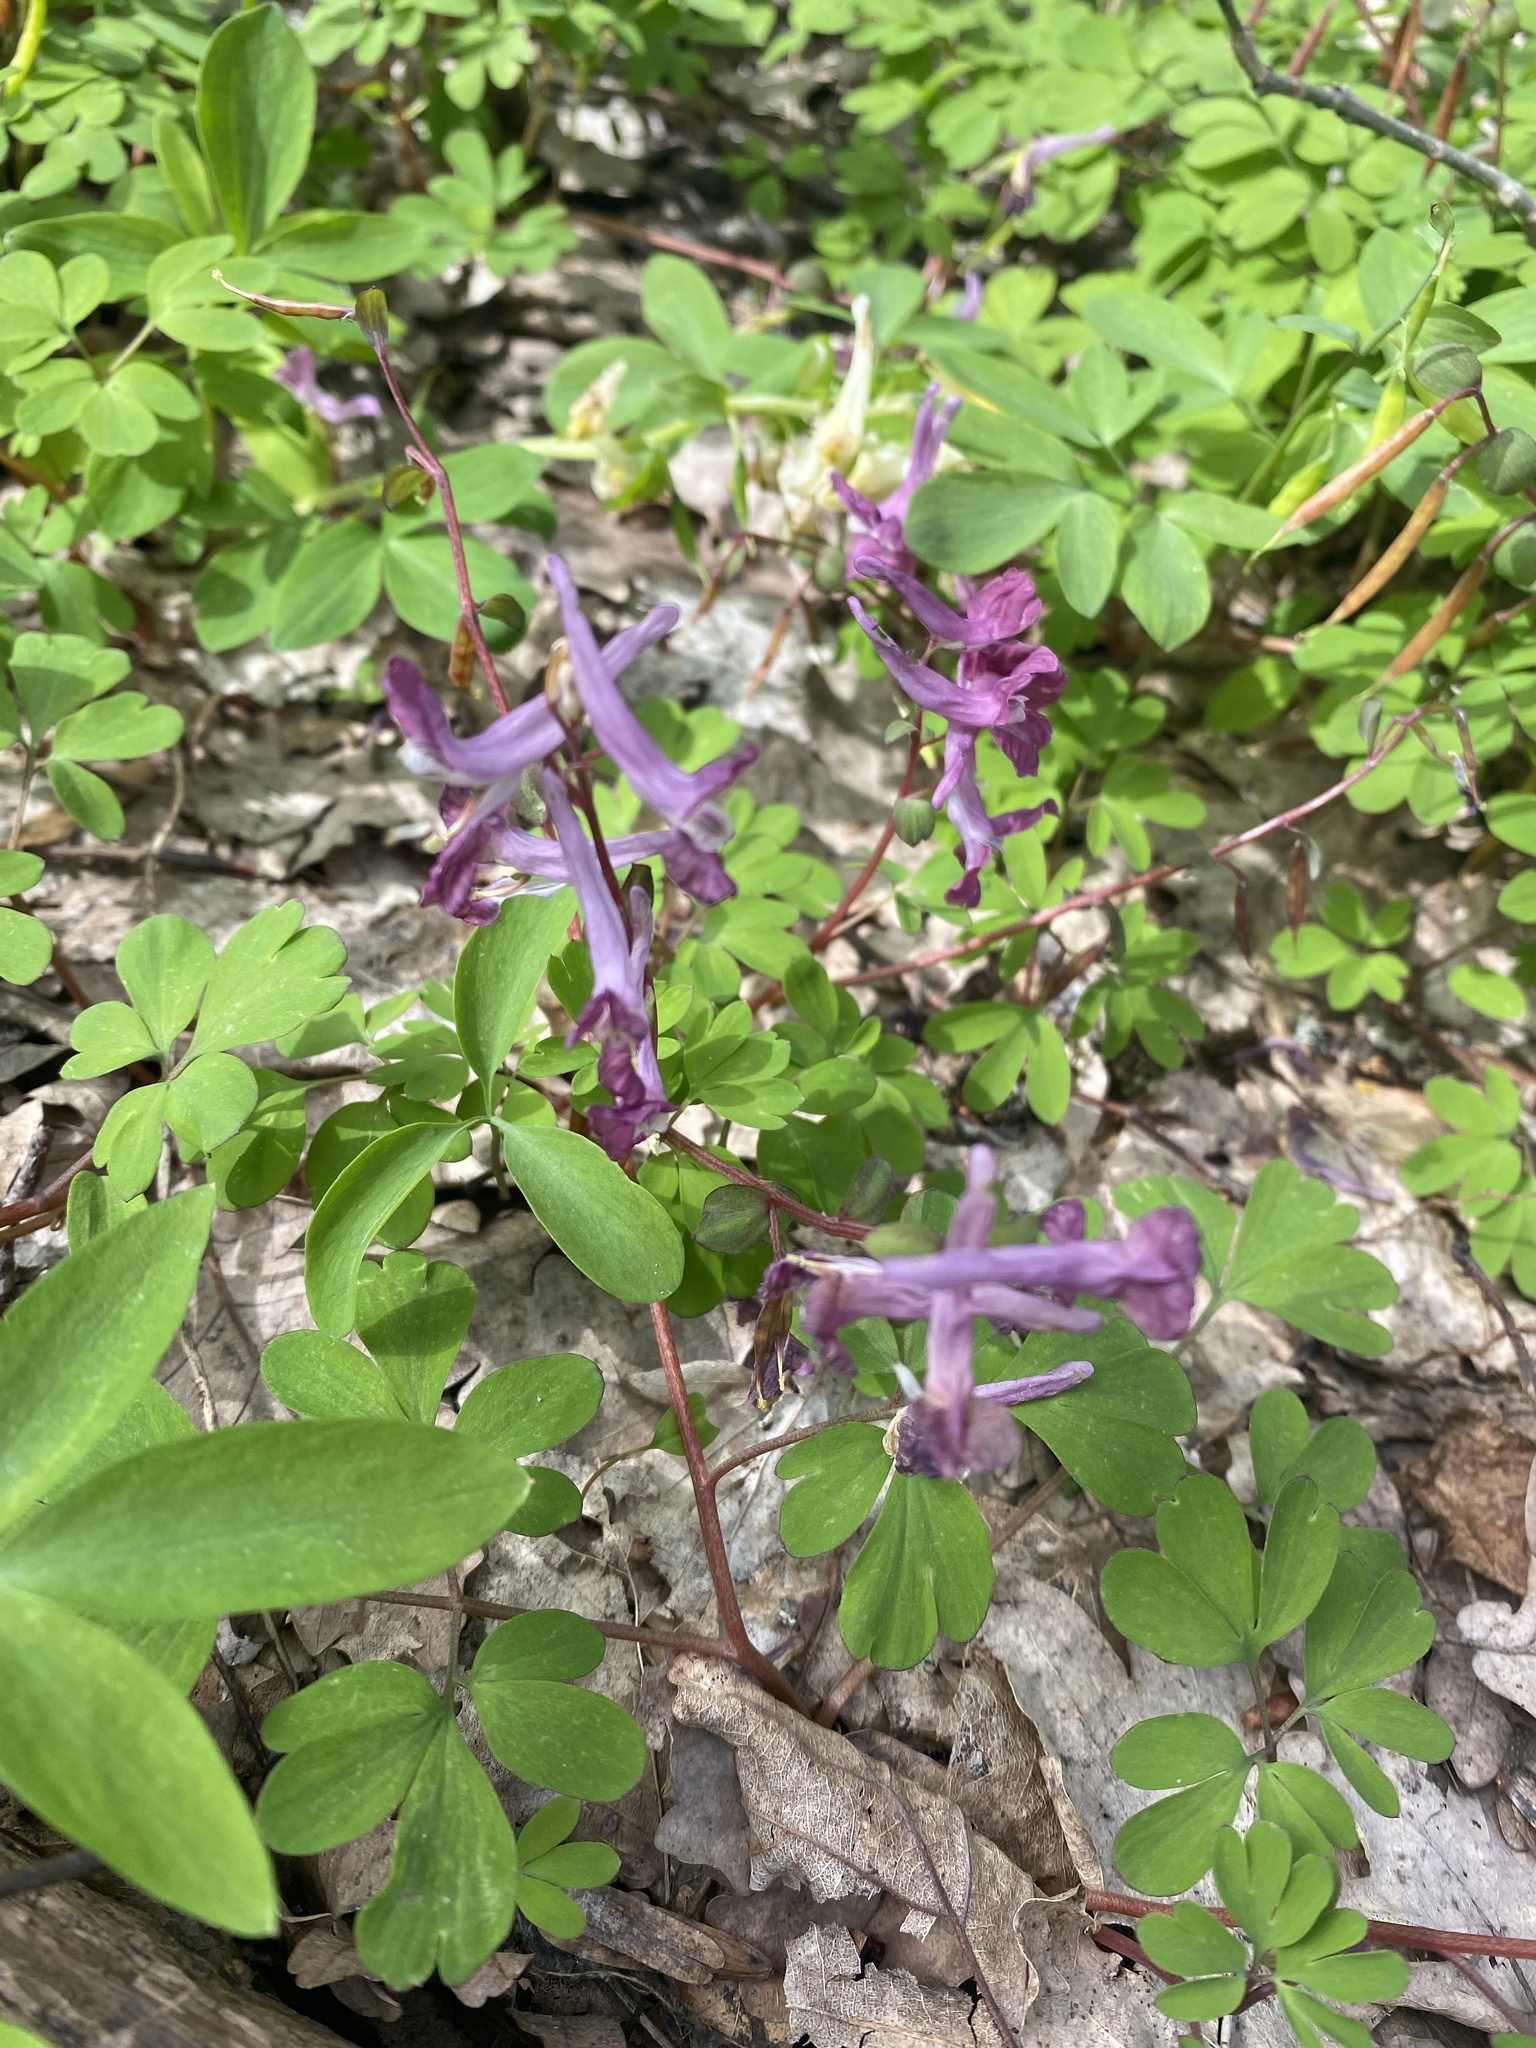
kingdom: Plantae
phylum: Tracheophyta
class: Magnoliopsida
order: Ranunculales
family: Papaveraceae
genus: Corydalis
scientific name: Corydalis caucasica
